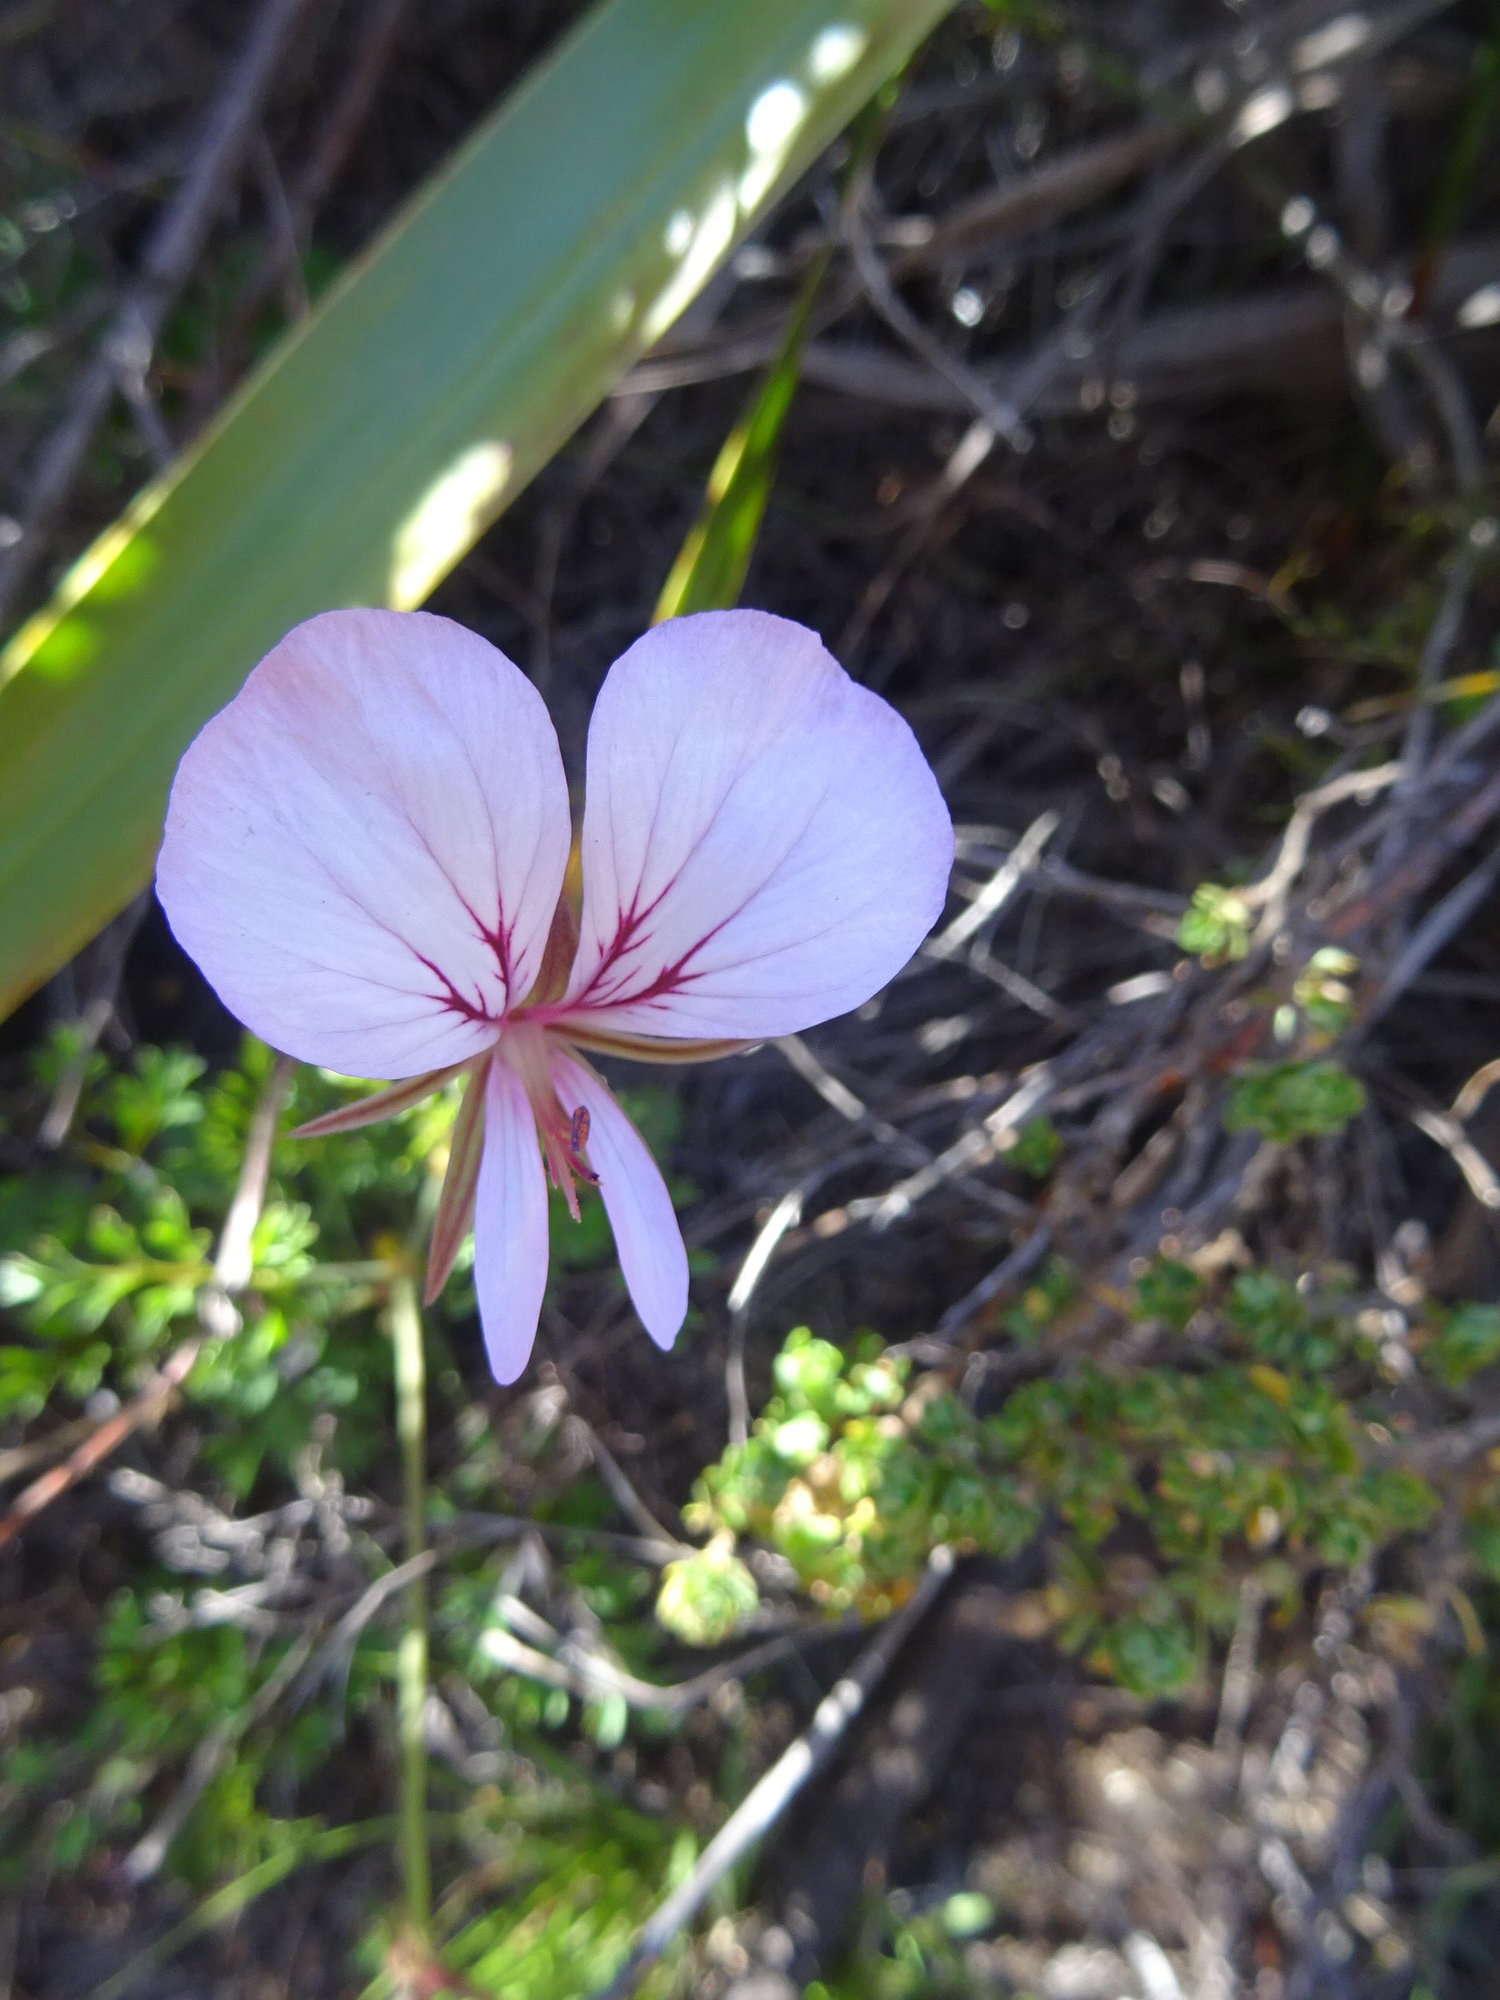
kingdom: Plantae
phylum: Tracheophyta
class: Magnoliopsida
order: Geraniales
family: Geraniaceae
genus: Pelargonium
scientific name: Pelargonium longicaule
